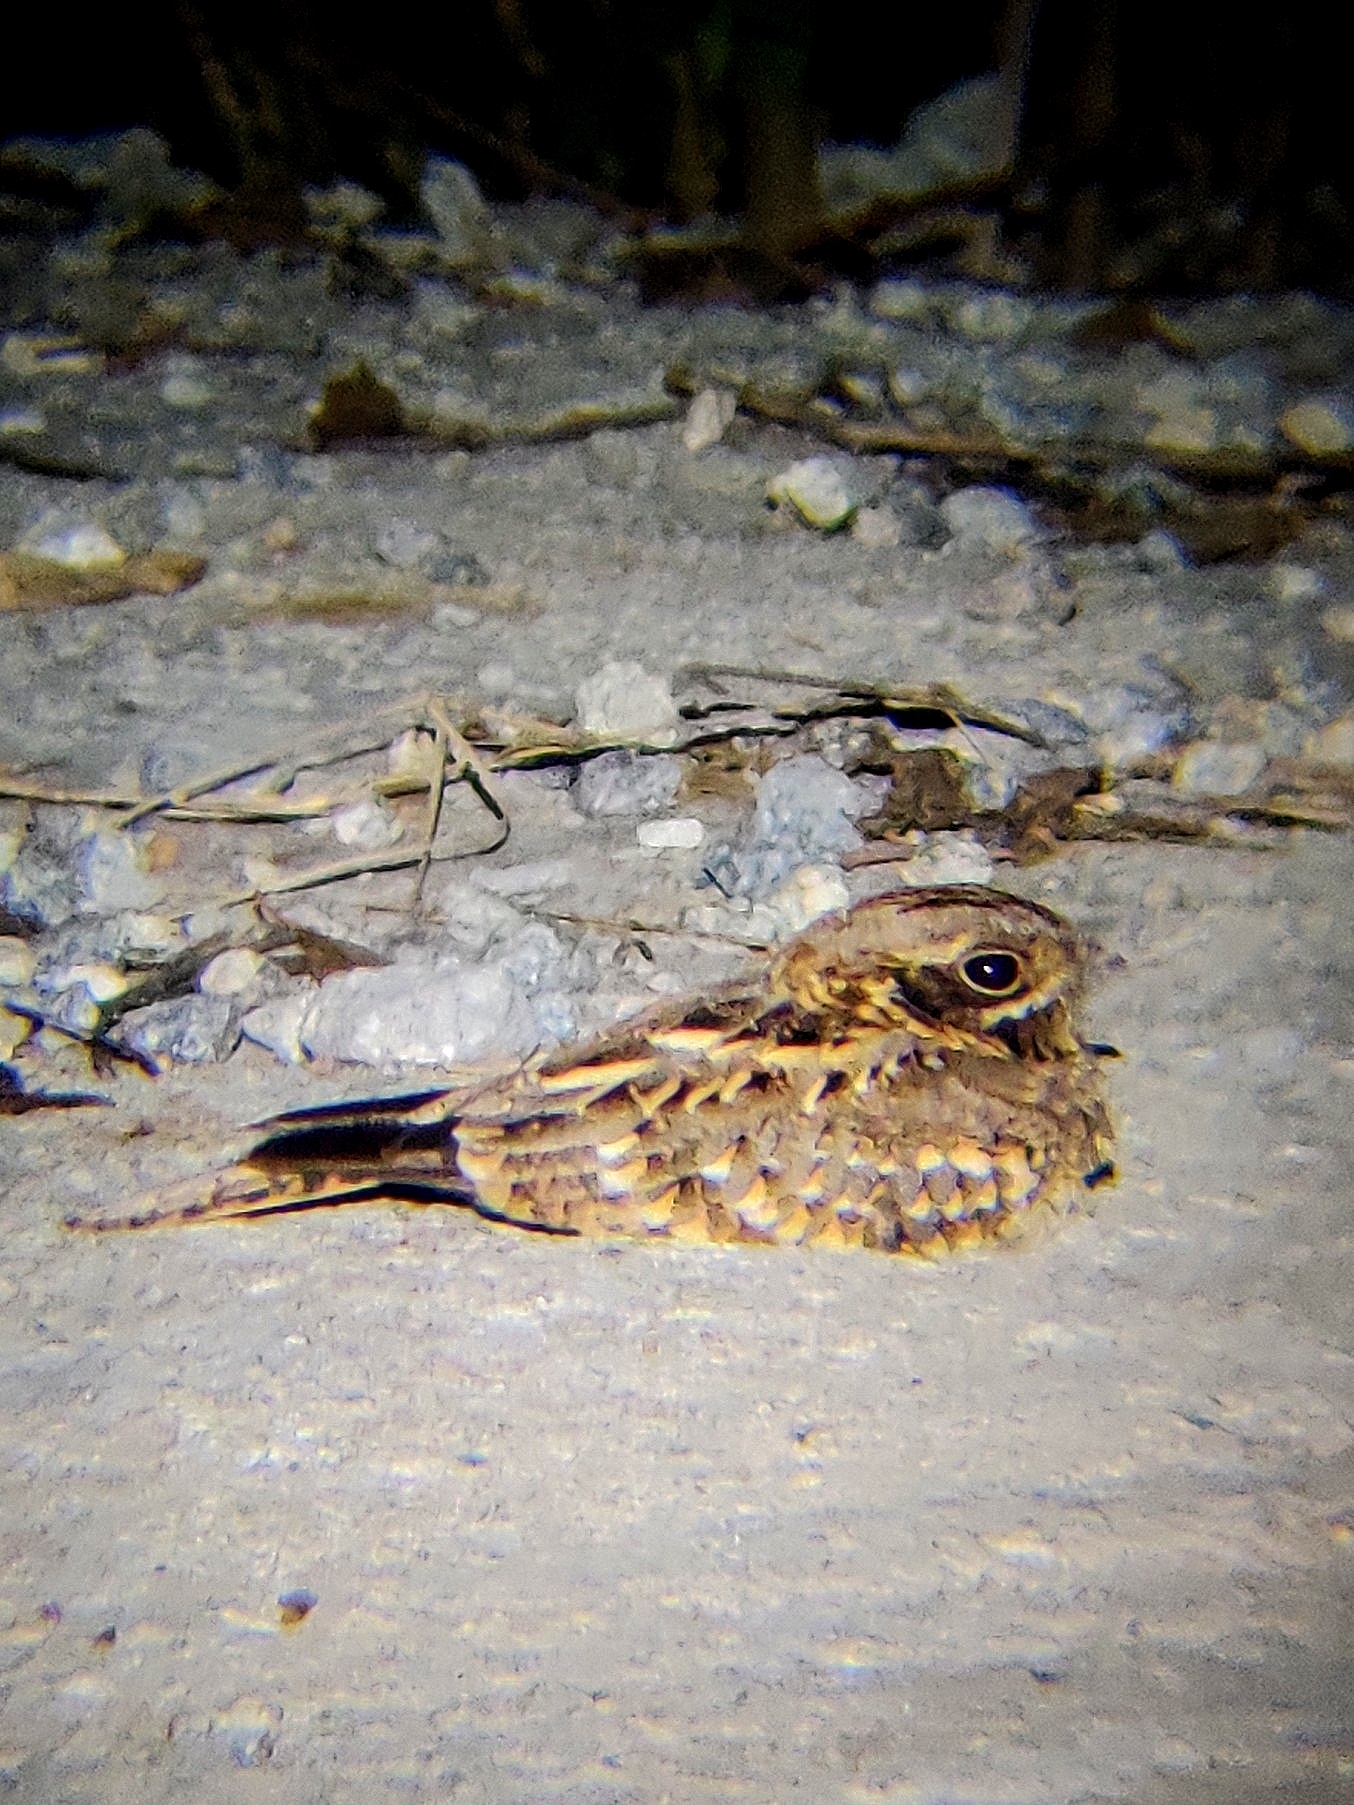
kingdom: Animalia
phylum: Chordata
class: Aves
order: Caprimulgiformes
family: Caprimulgidae
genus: Caprimulgus
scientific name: Caprimulgus asiaticus
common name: Indian nightjar
